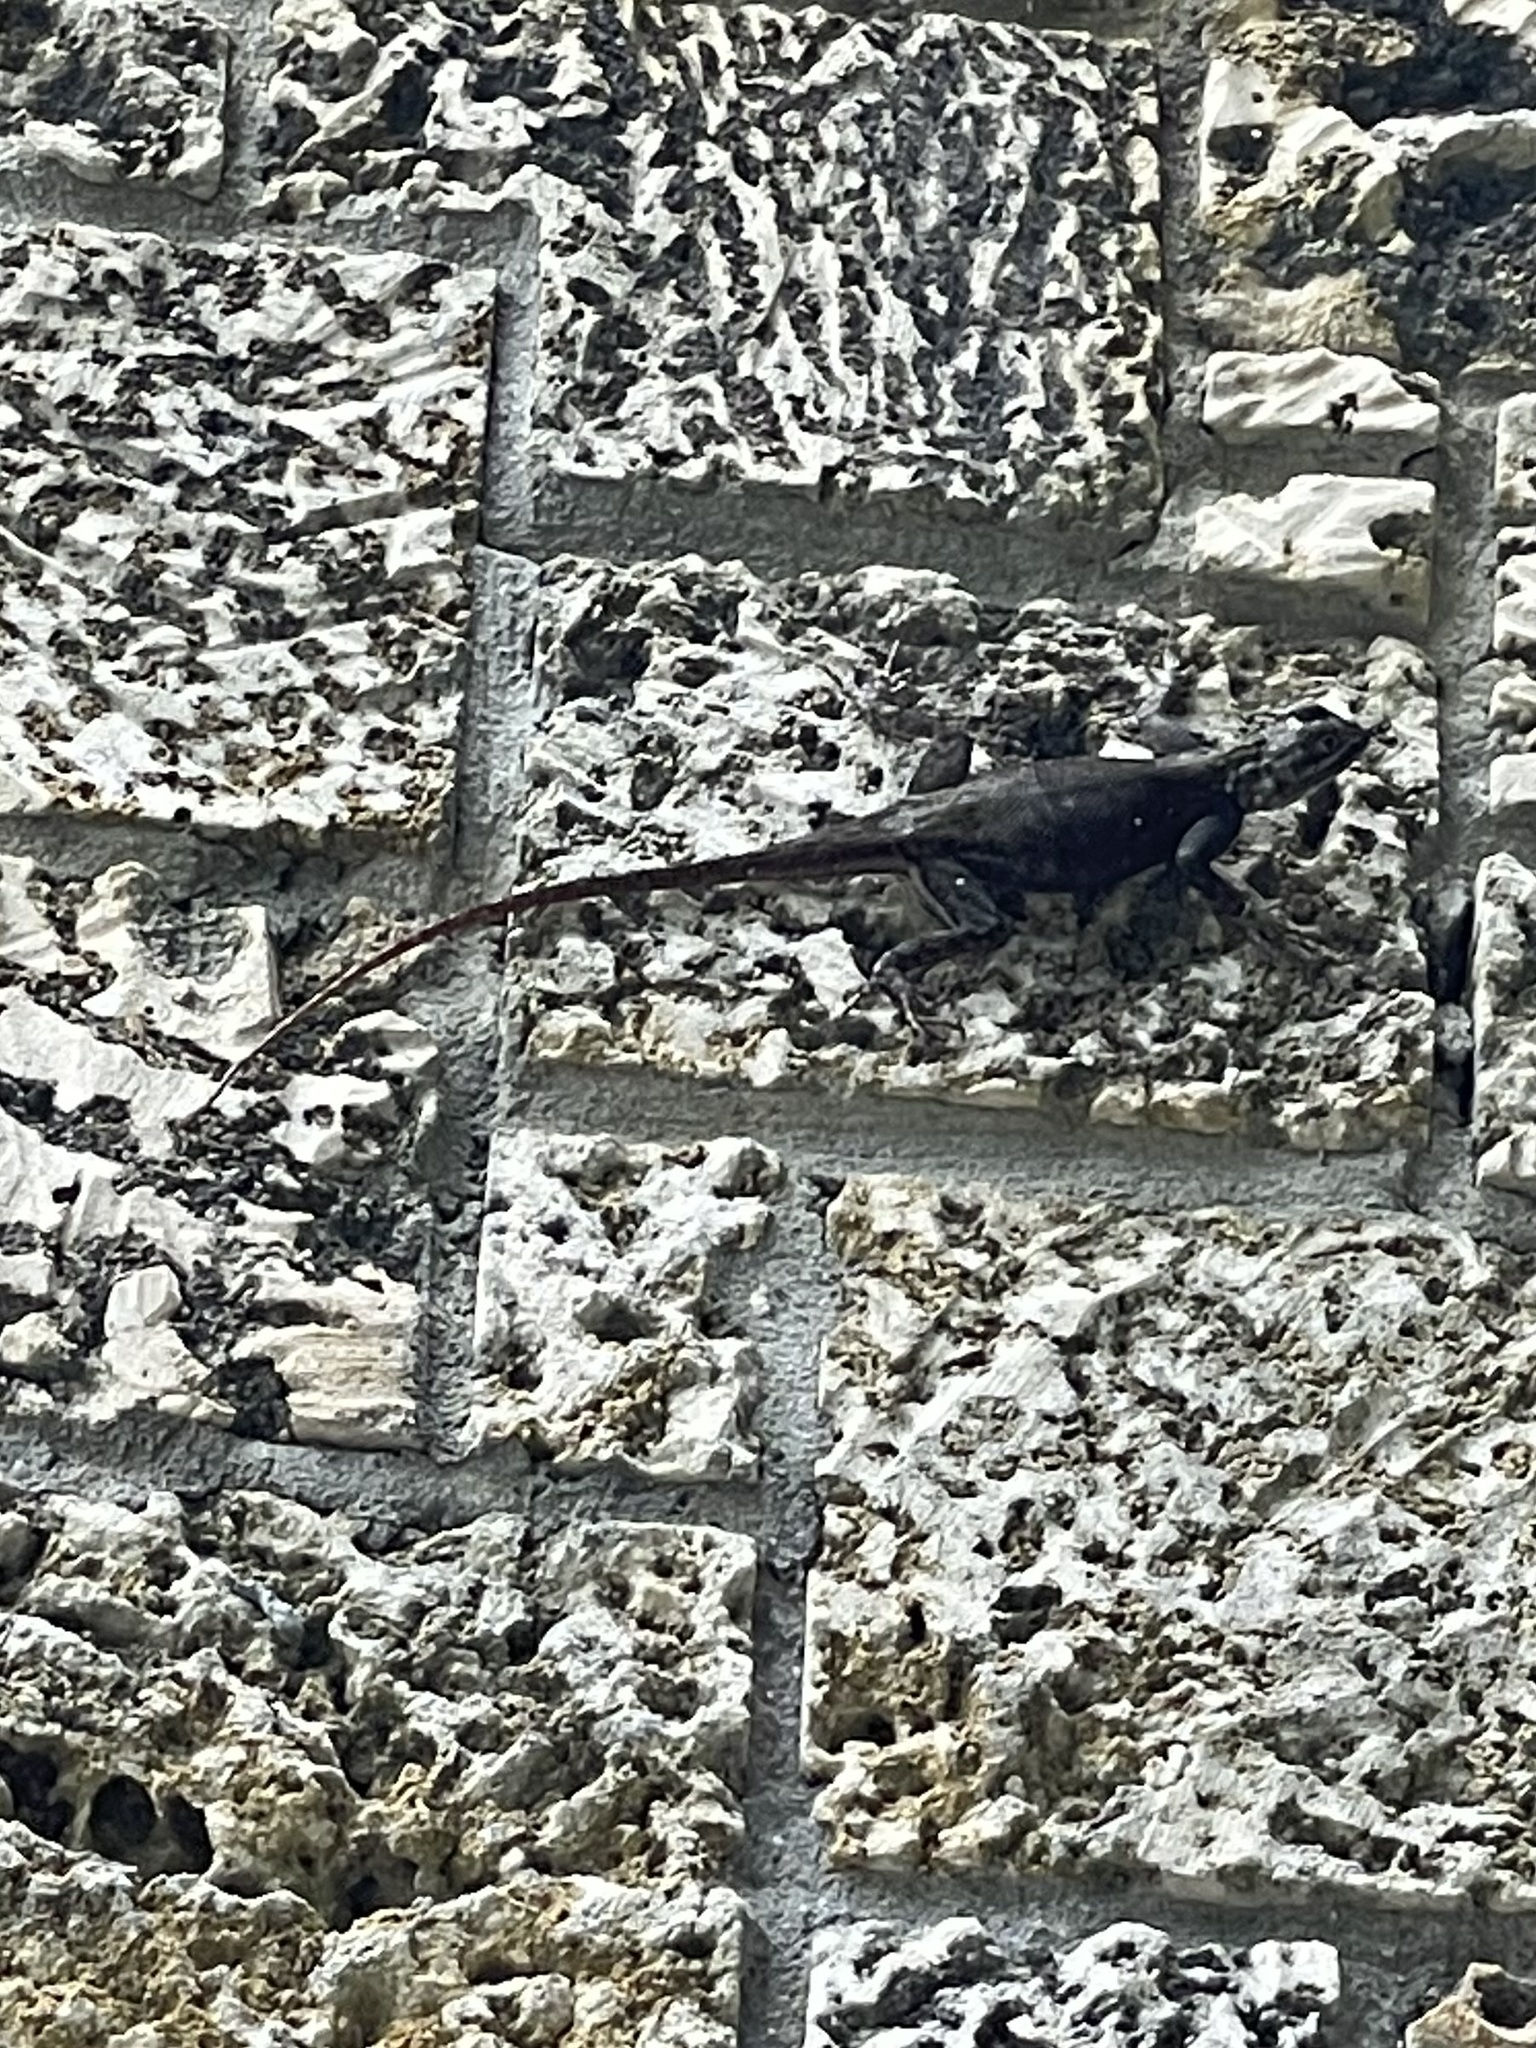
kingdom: Animalia
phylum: Chordata
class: Squamata
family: Agamidae
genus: Agama
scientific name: Agama picticauda
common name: Red-headed agama
